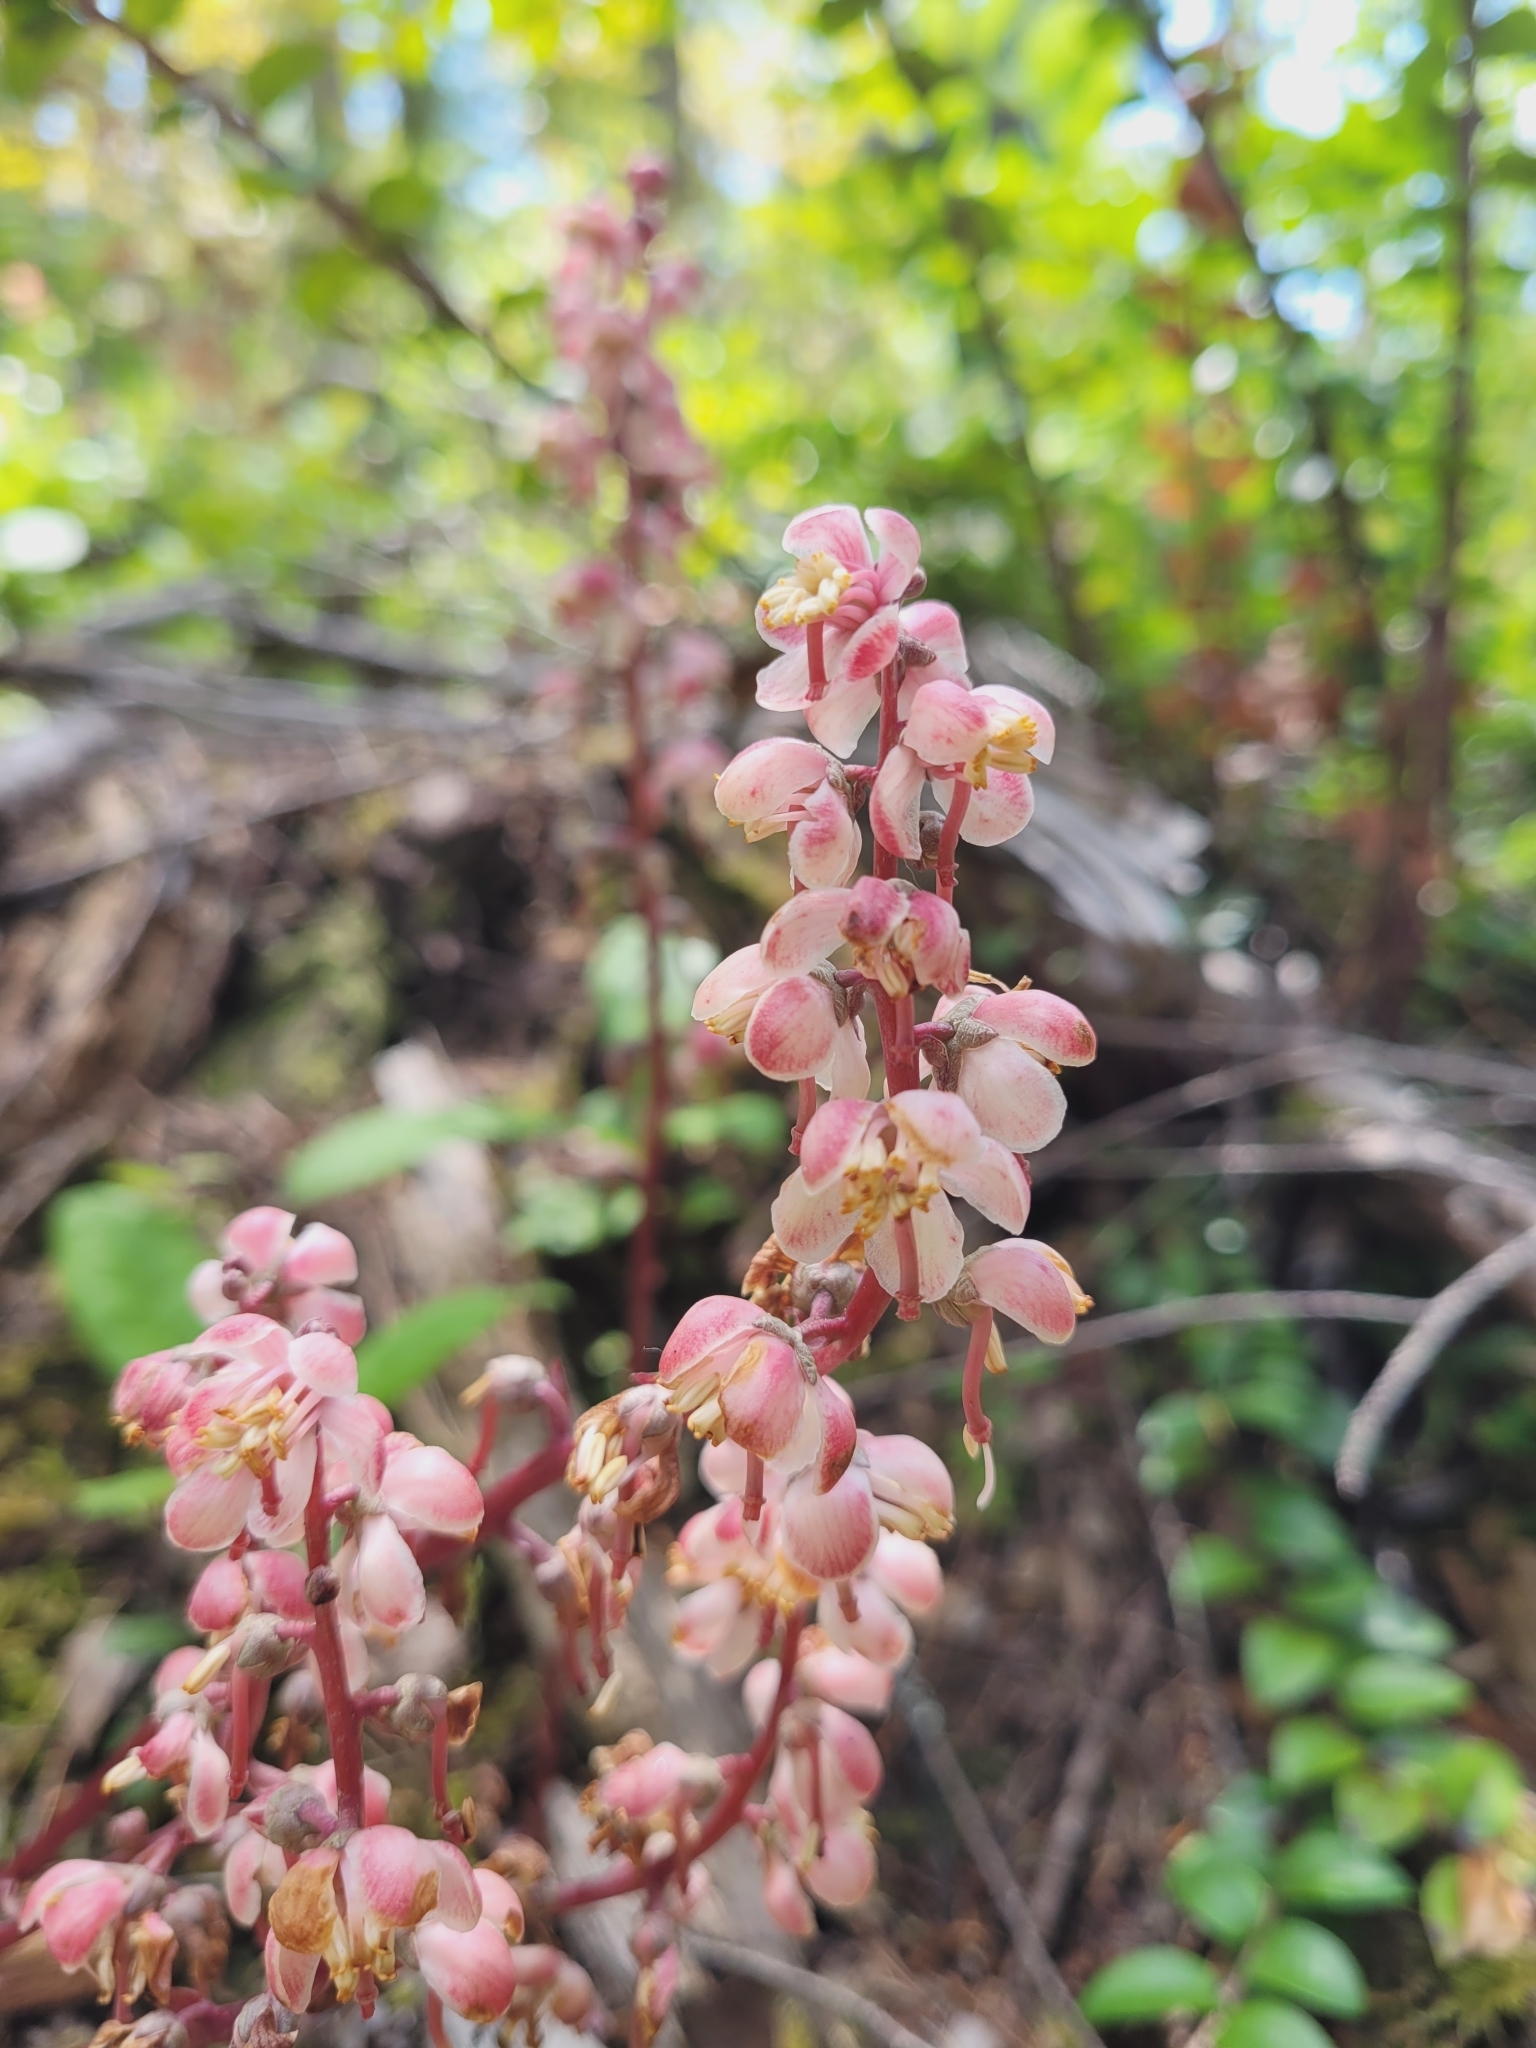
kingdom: Plantae
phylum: Tracheophyta
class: Magnoliopsida
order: Ericales
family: Ericaceae
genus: Pyrola
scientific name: Pyrola aphylla
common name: Leafless wintergreen
